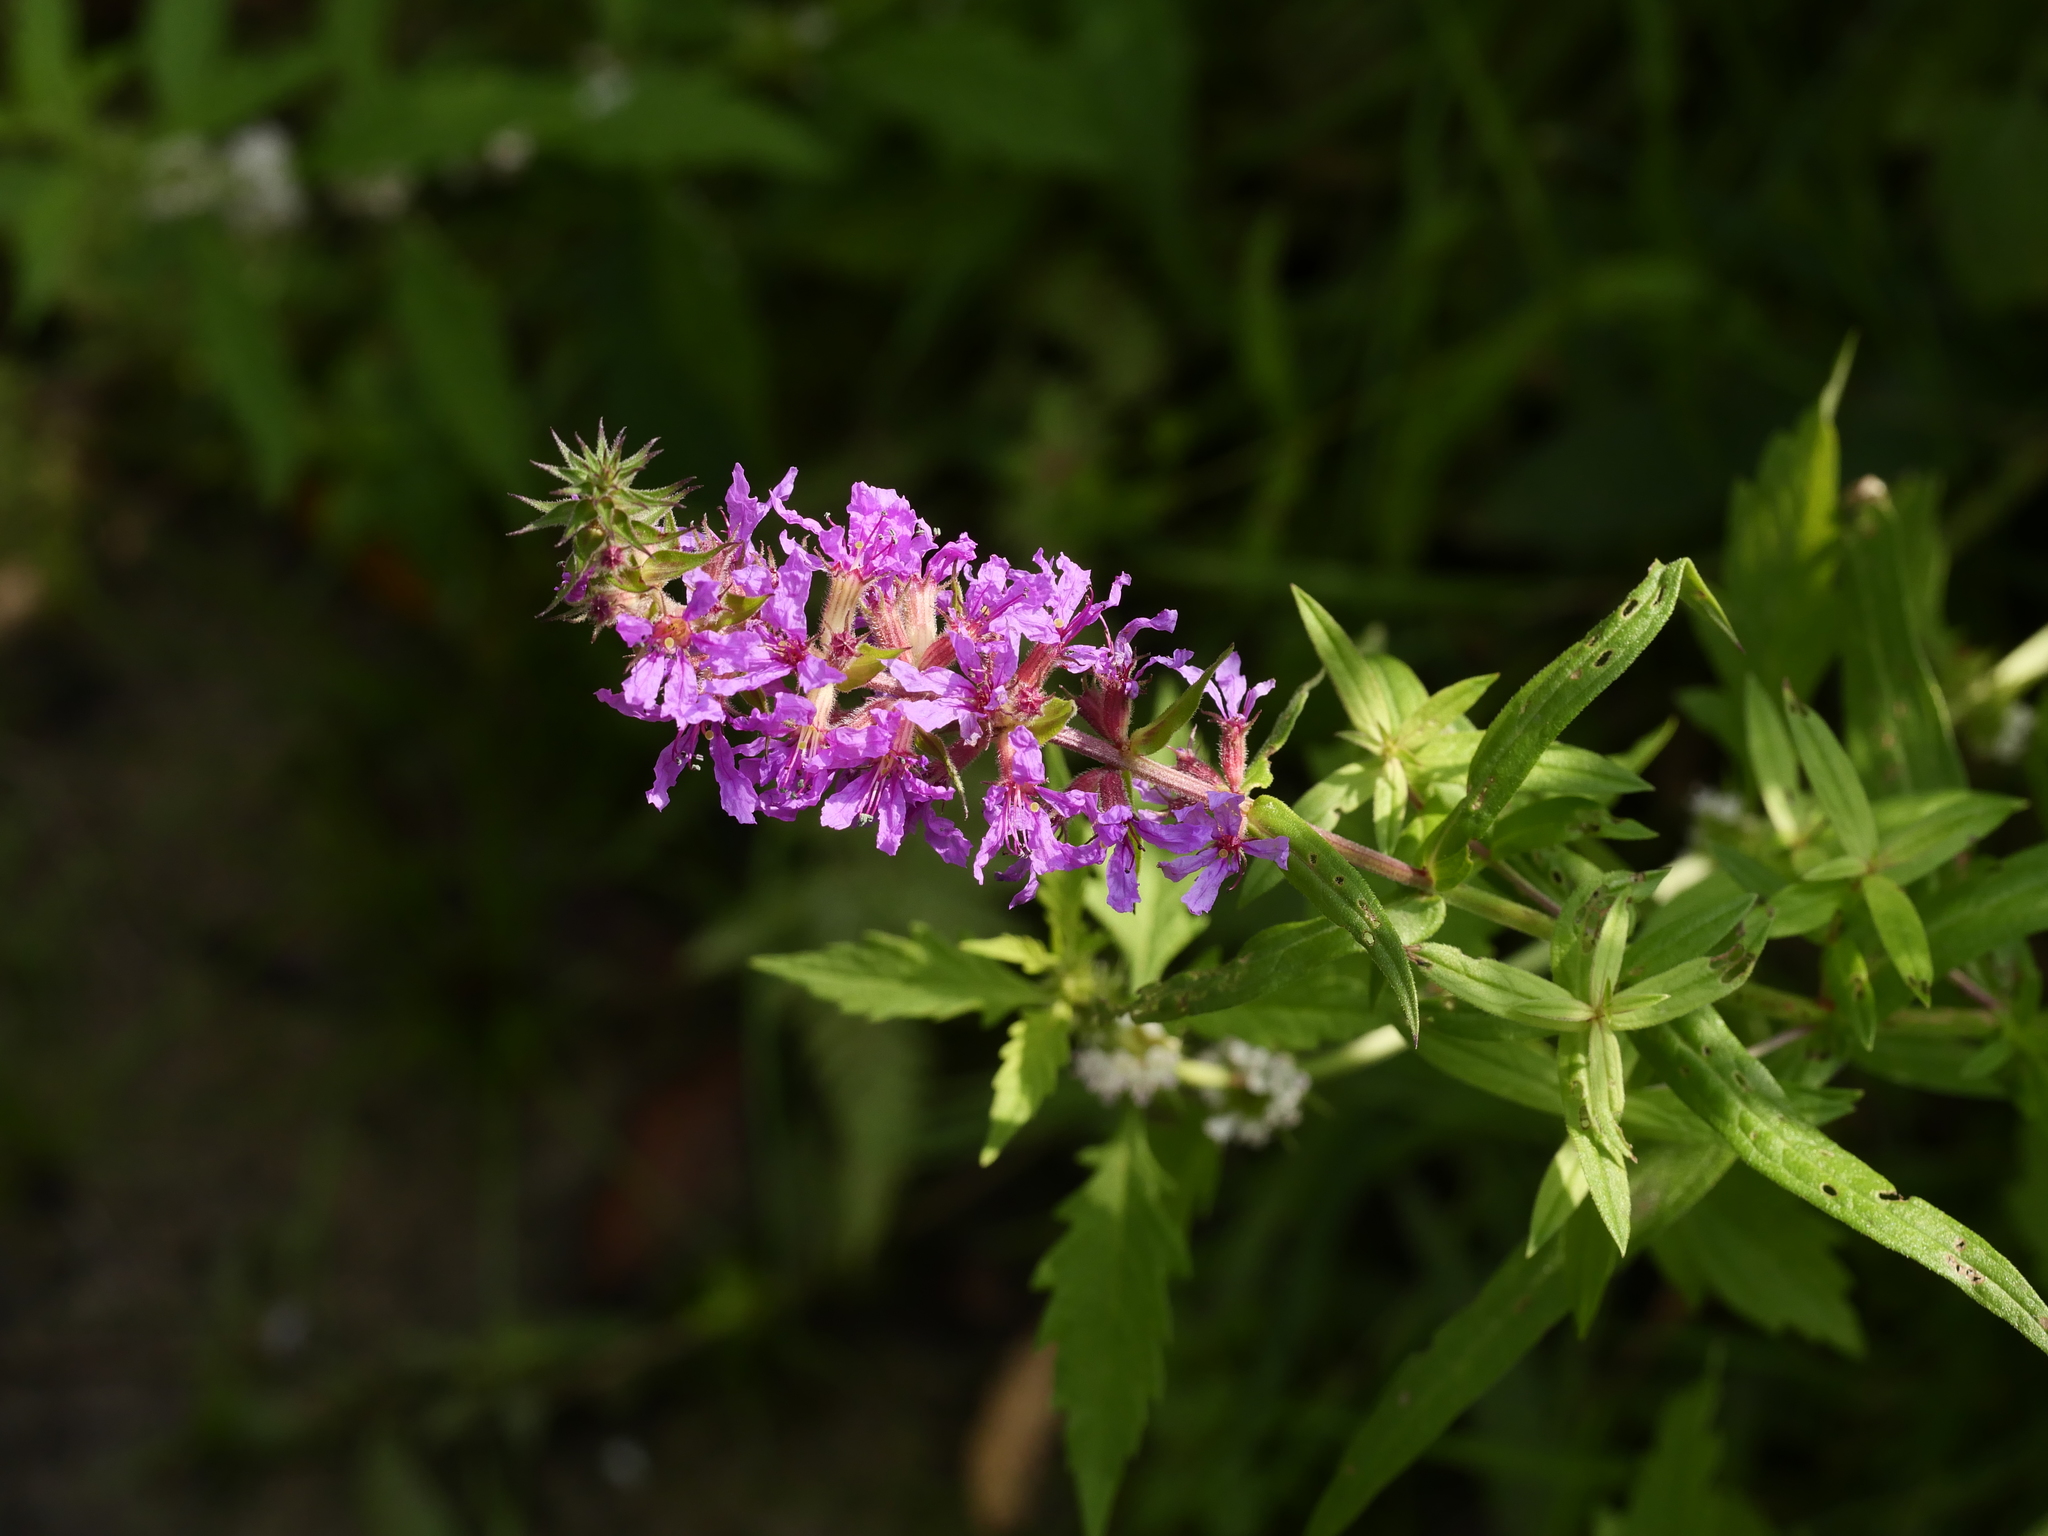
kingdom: Plantae
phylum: Tracheophyta
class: Magnoliopsida
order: Myrtales
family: Lythraceae
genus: Lythrum
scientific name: Lythrum salicaria
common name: Purple loosestrife
